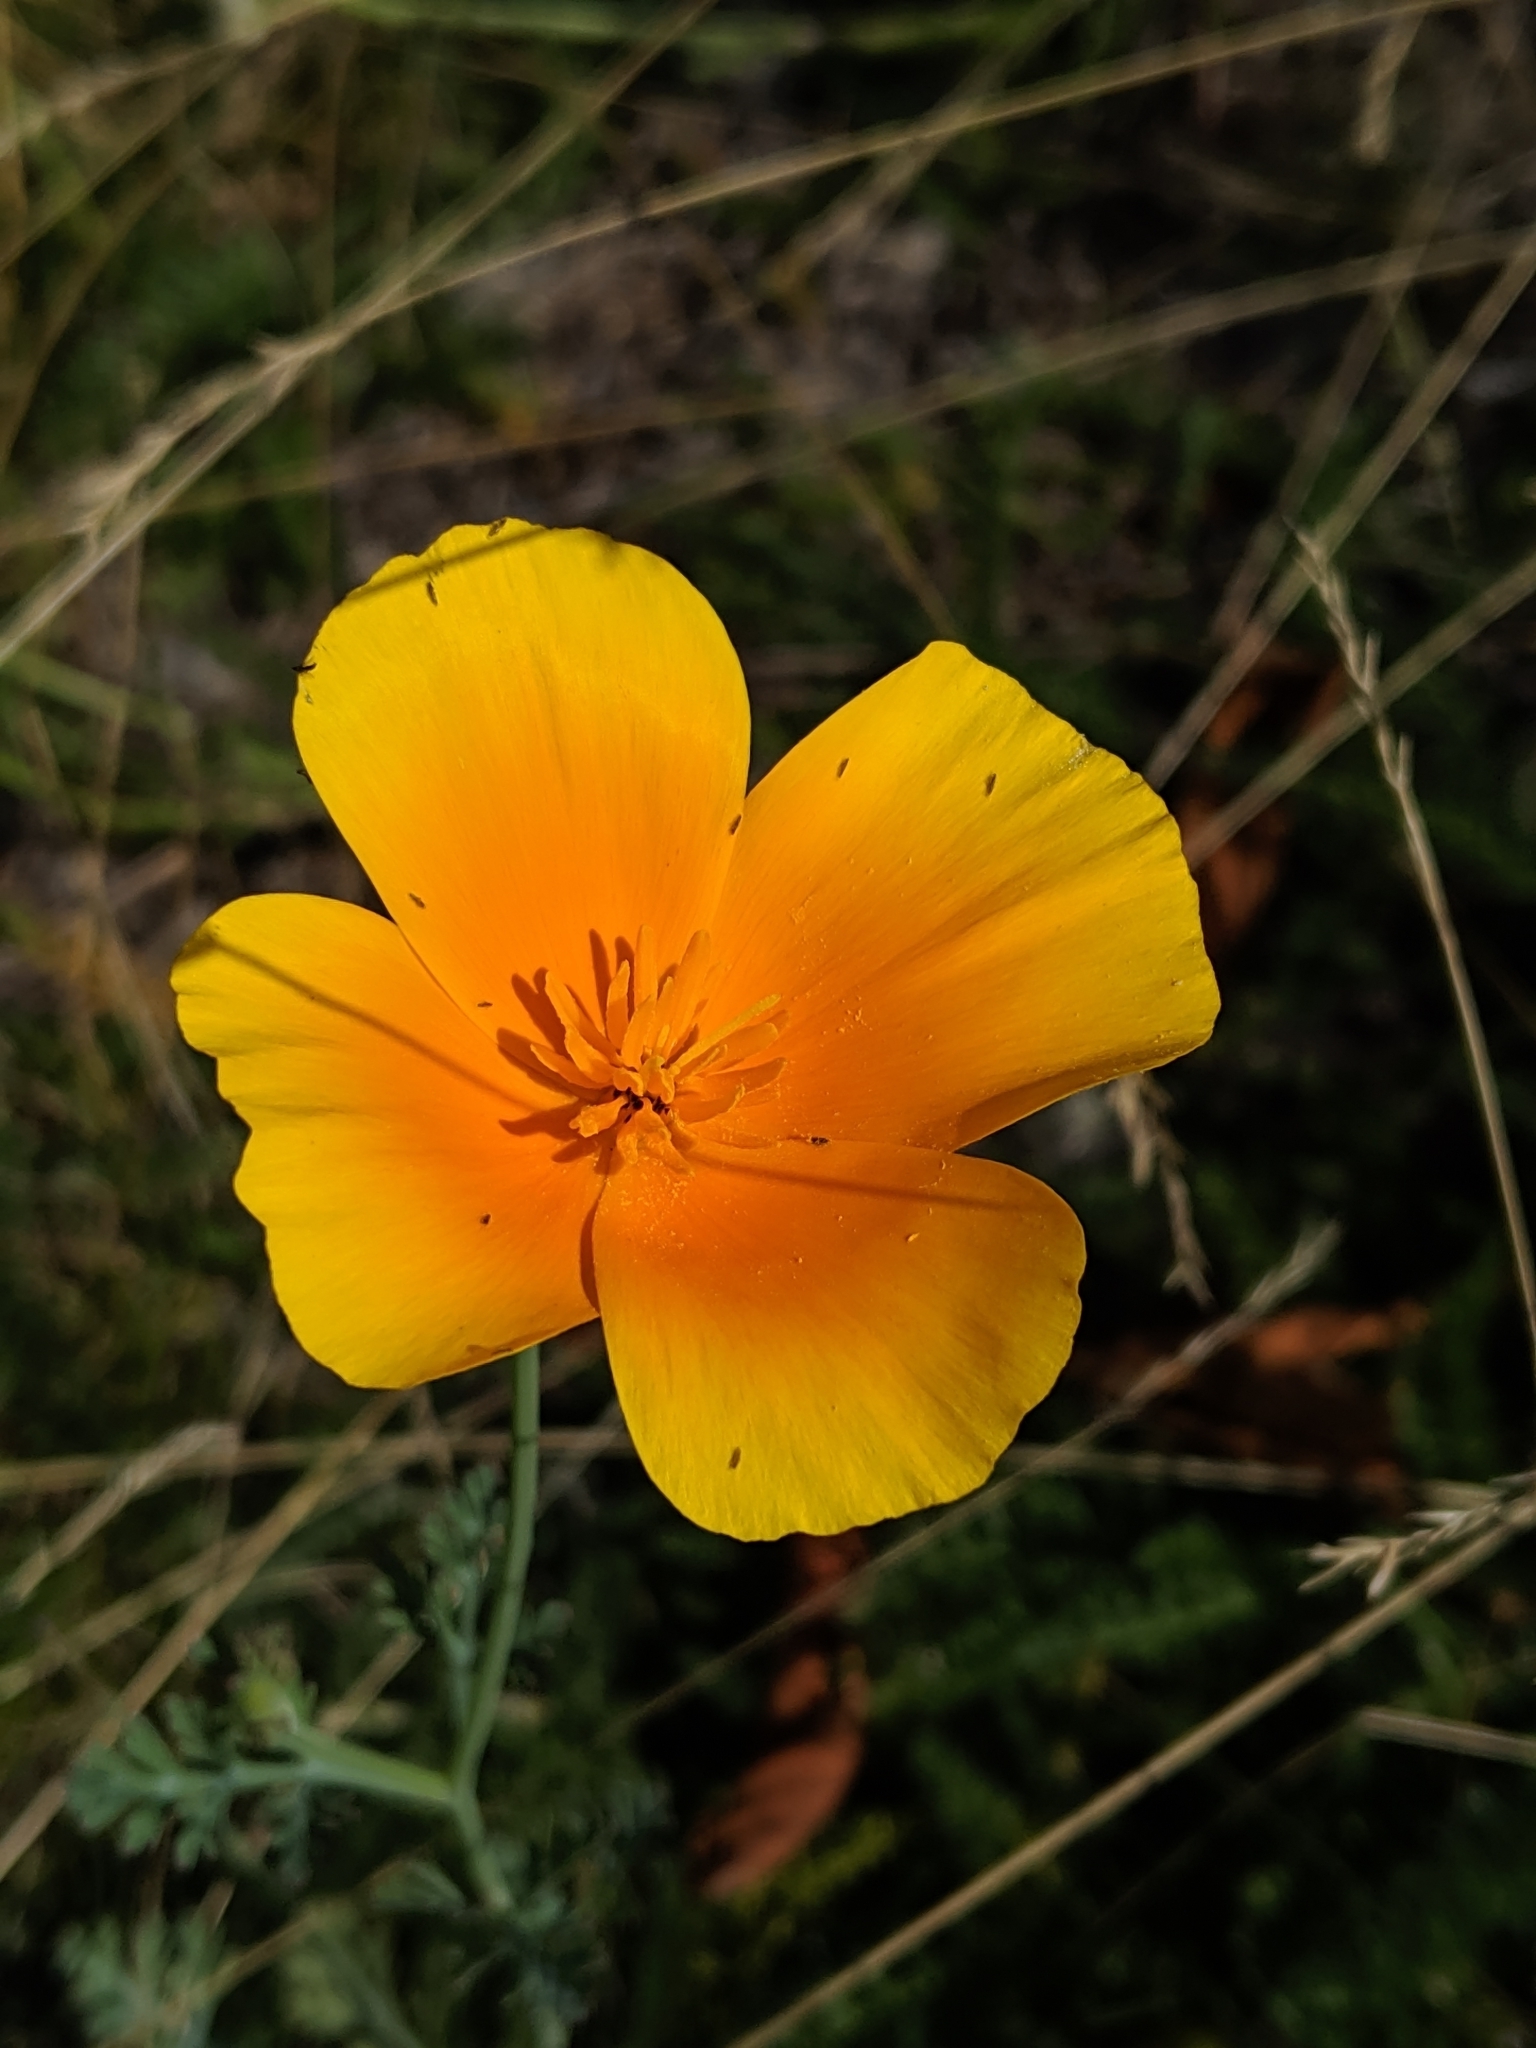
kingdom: Plantae
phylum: Tracheophyta
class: Magnoliopsida
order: Ranunculales
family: Papaveraceae
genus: Eschscholzia
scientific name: Eschscholzia californica
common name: California poppy
